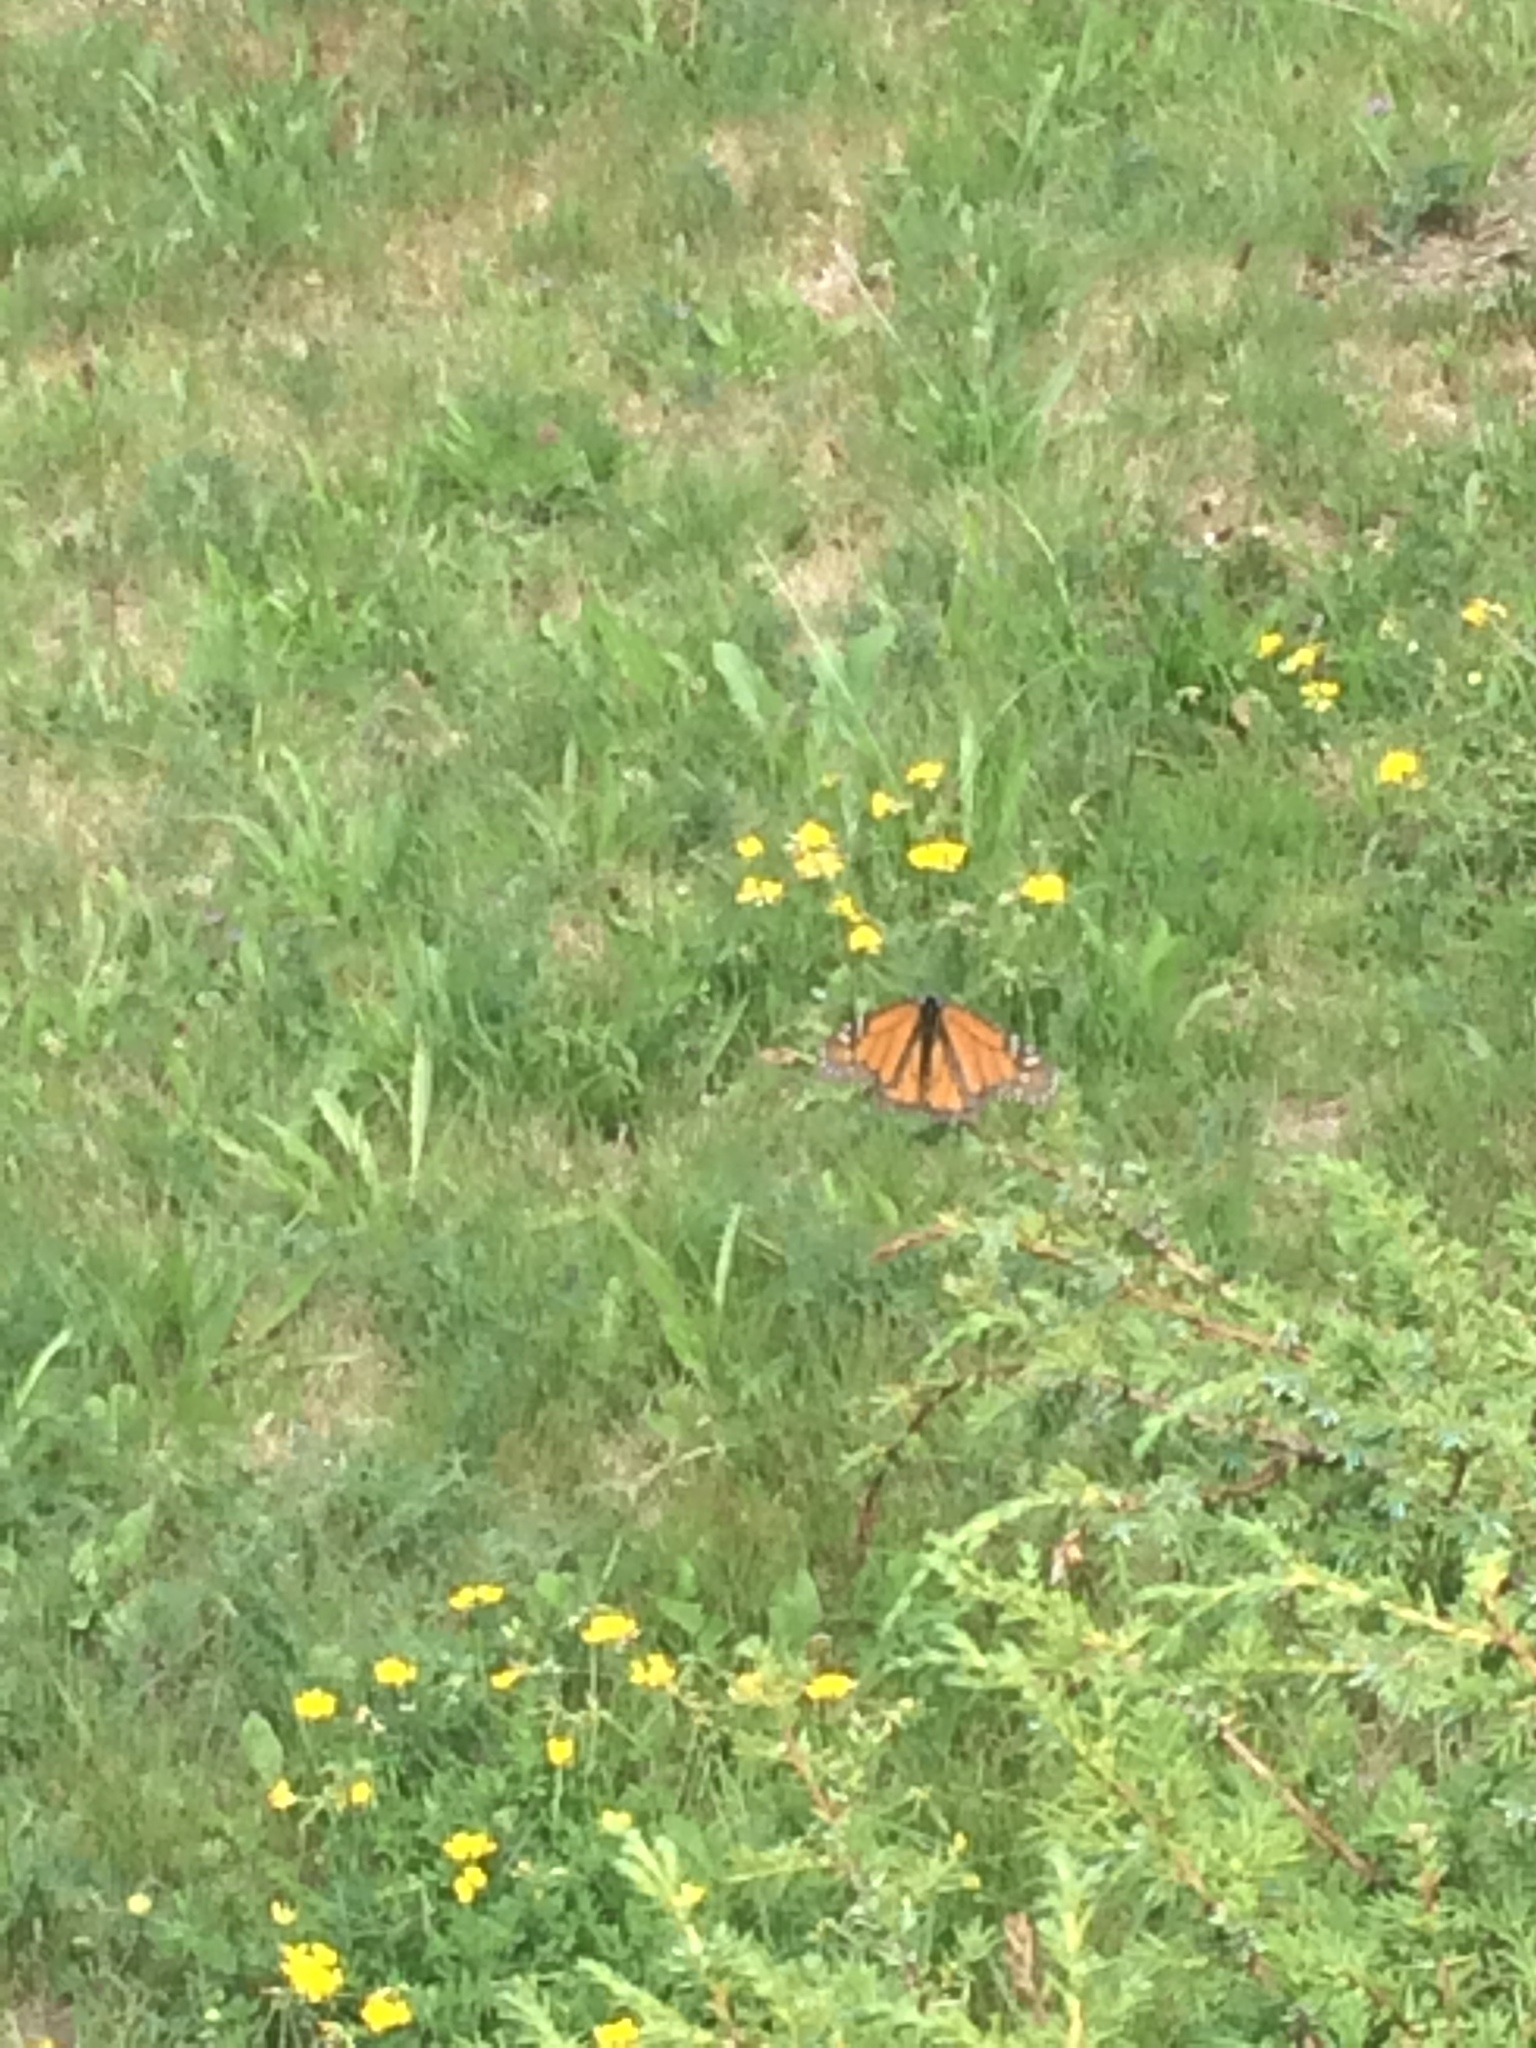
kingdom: Animalia
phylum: Arthropoda
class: Insecta
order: Lepidoptera
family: Nymphalidae
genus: Danaus
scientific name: Danaus plexippus
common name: Monarch
